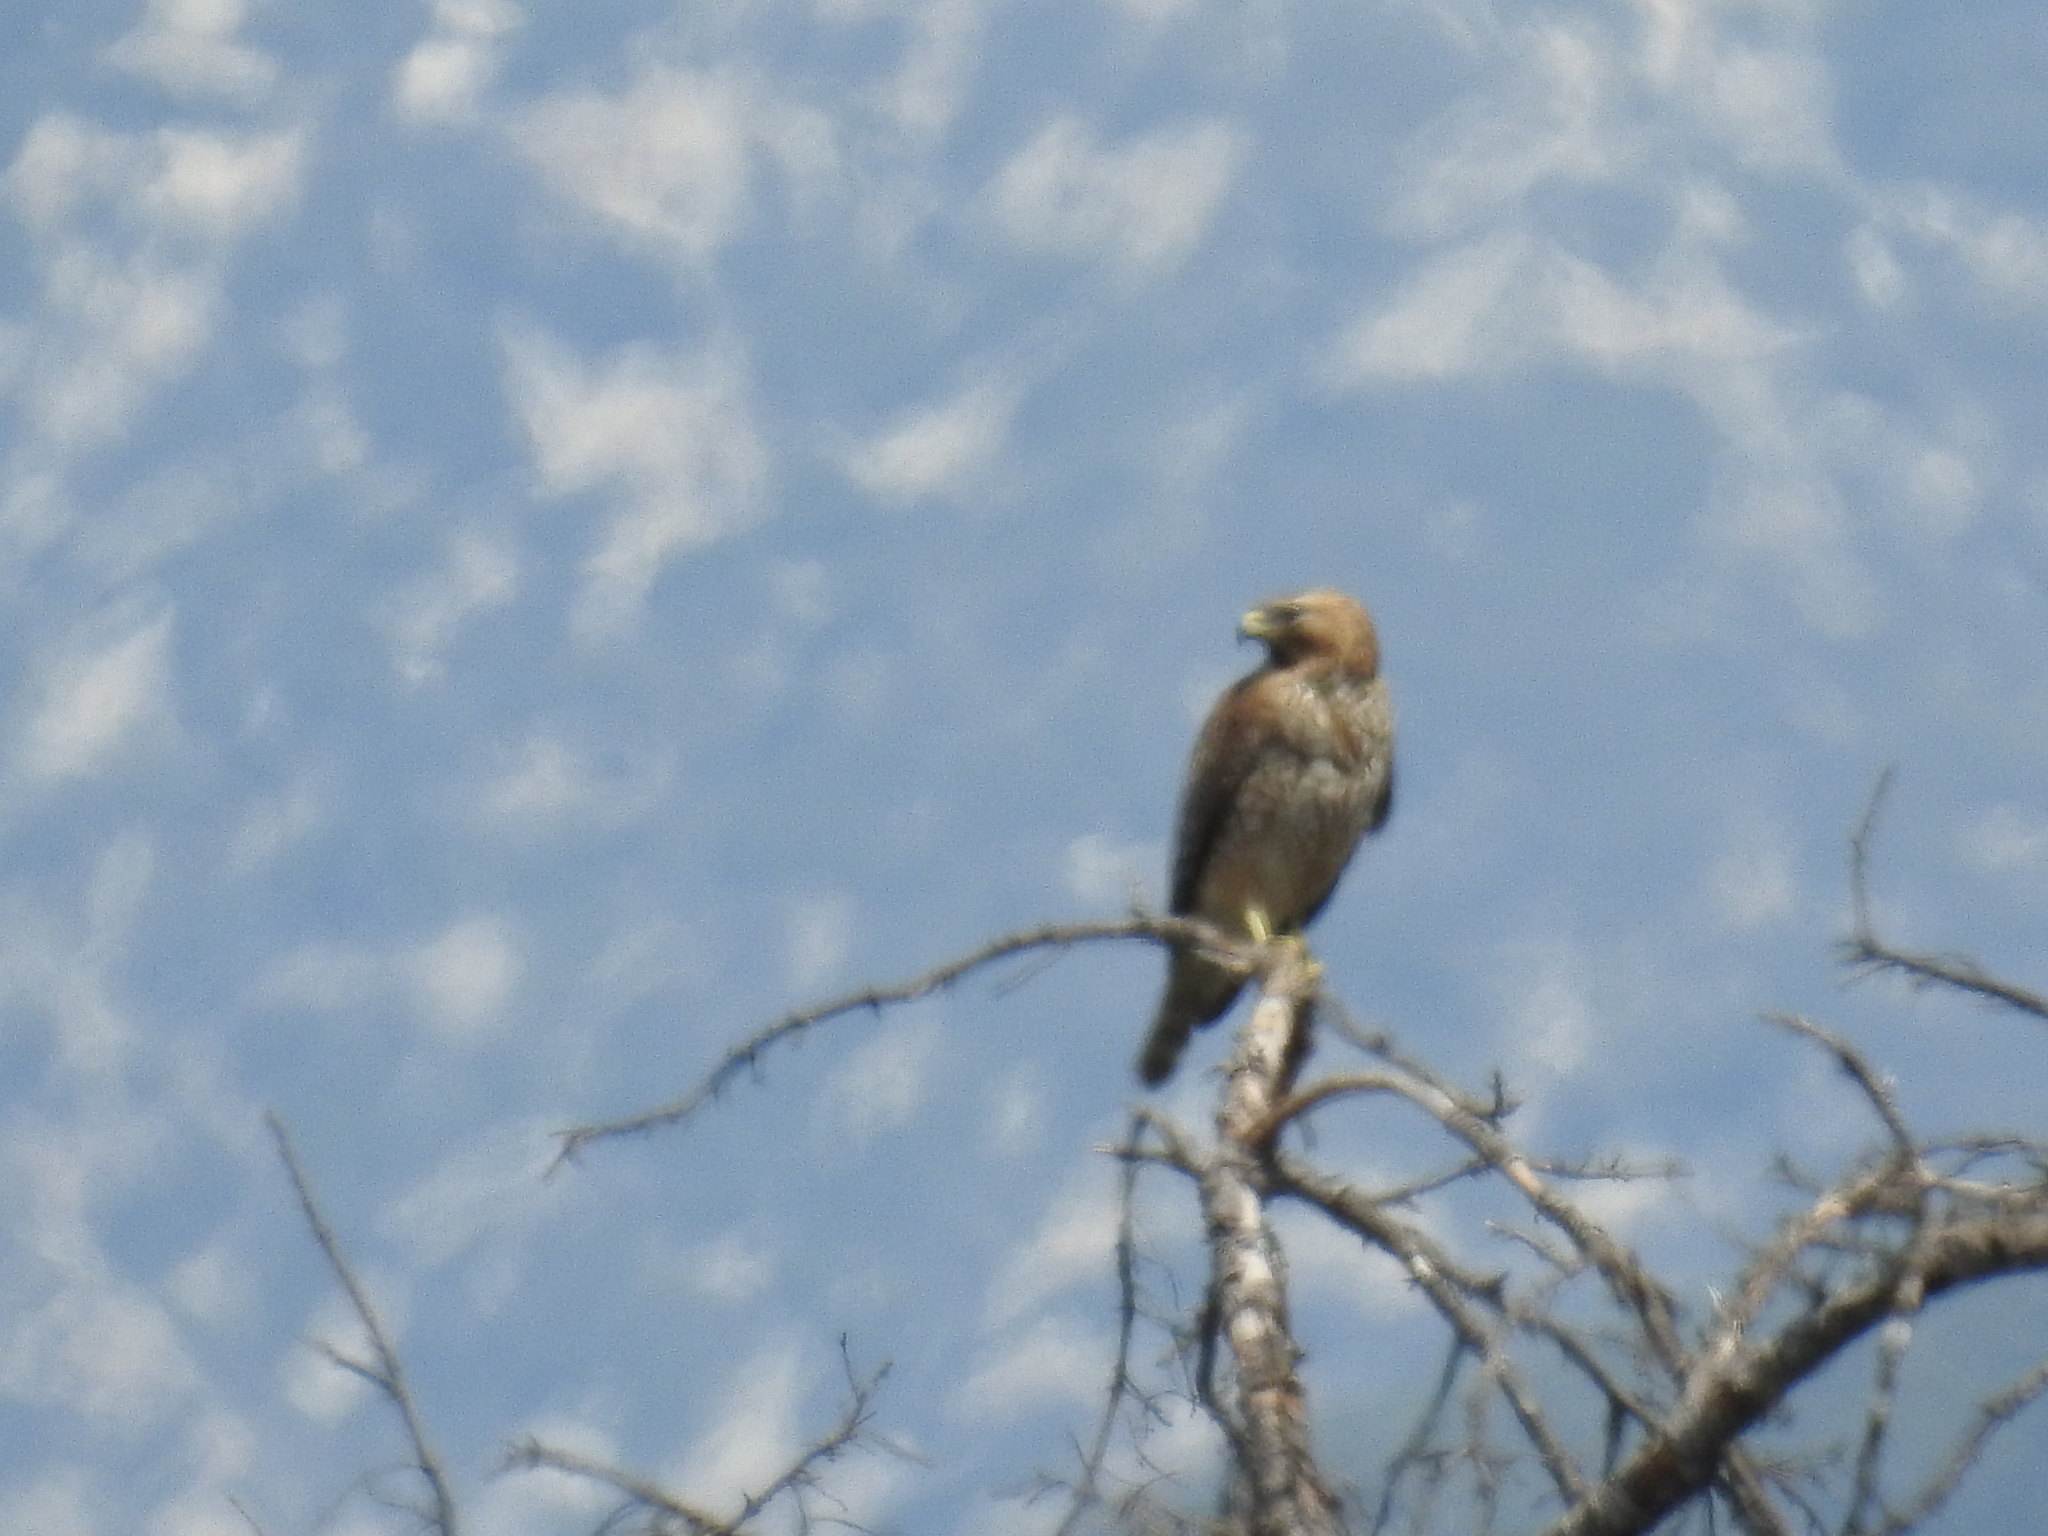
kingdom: Animalia
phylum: Chordata
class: Aves
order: Accipitriformes
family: Accipitridae
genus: Buteo
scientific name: Buteo lineatus
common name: Red-shouldered hawk
